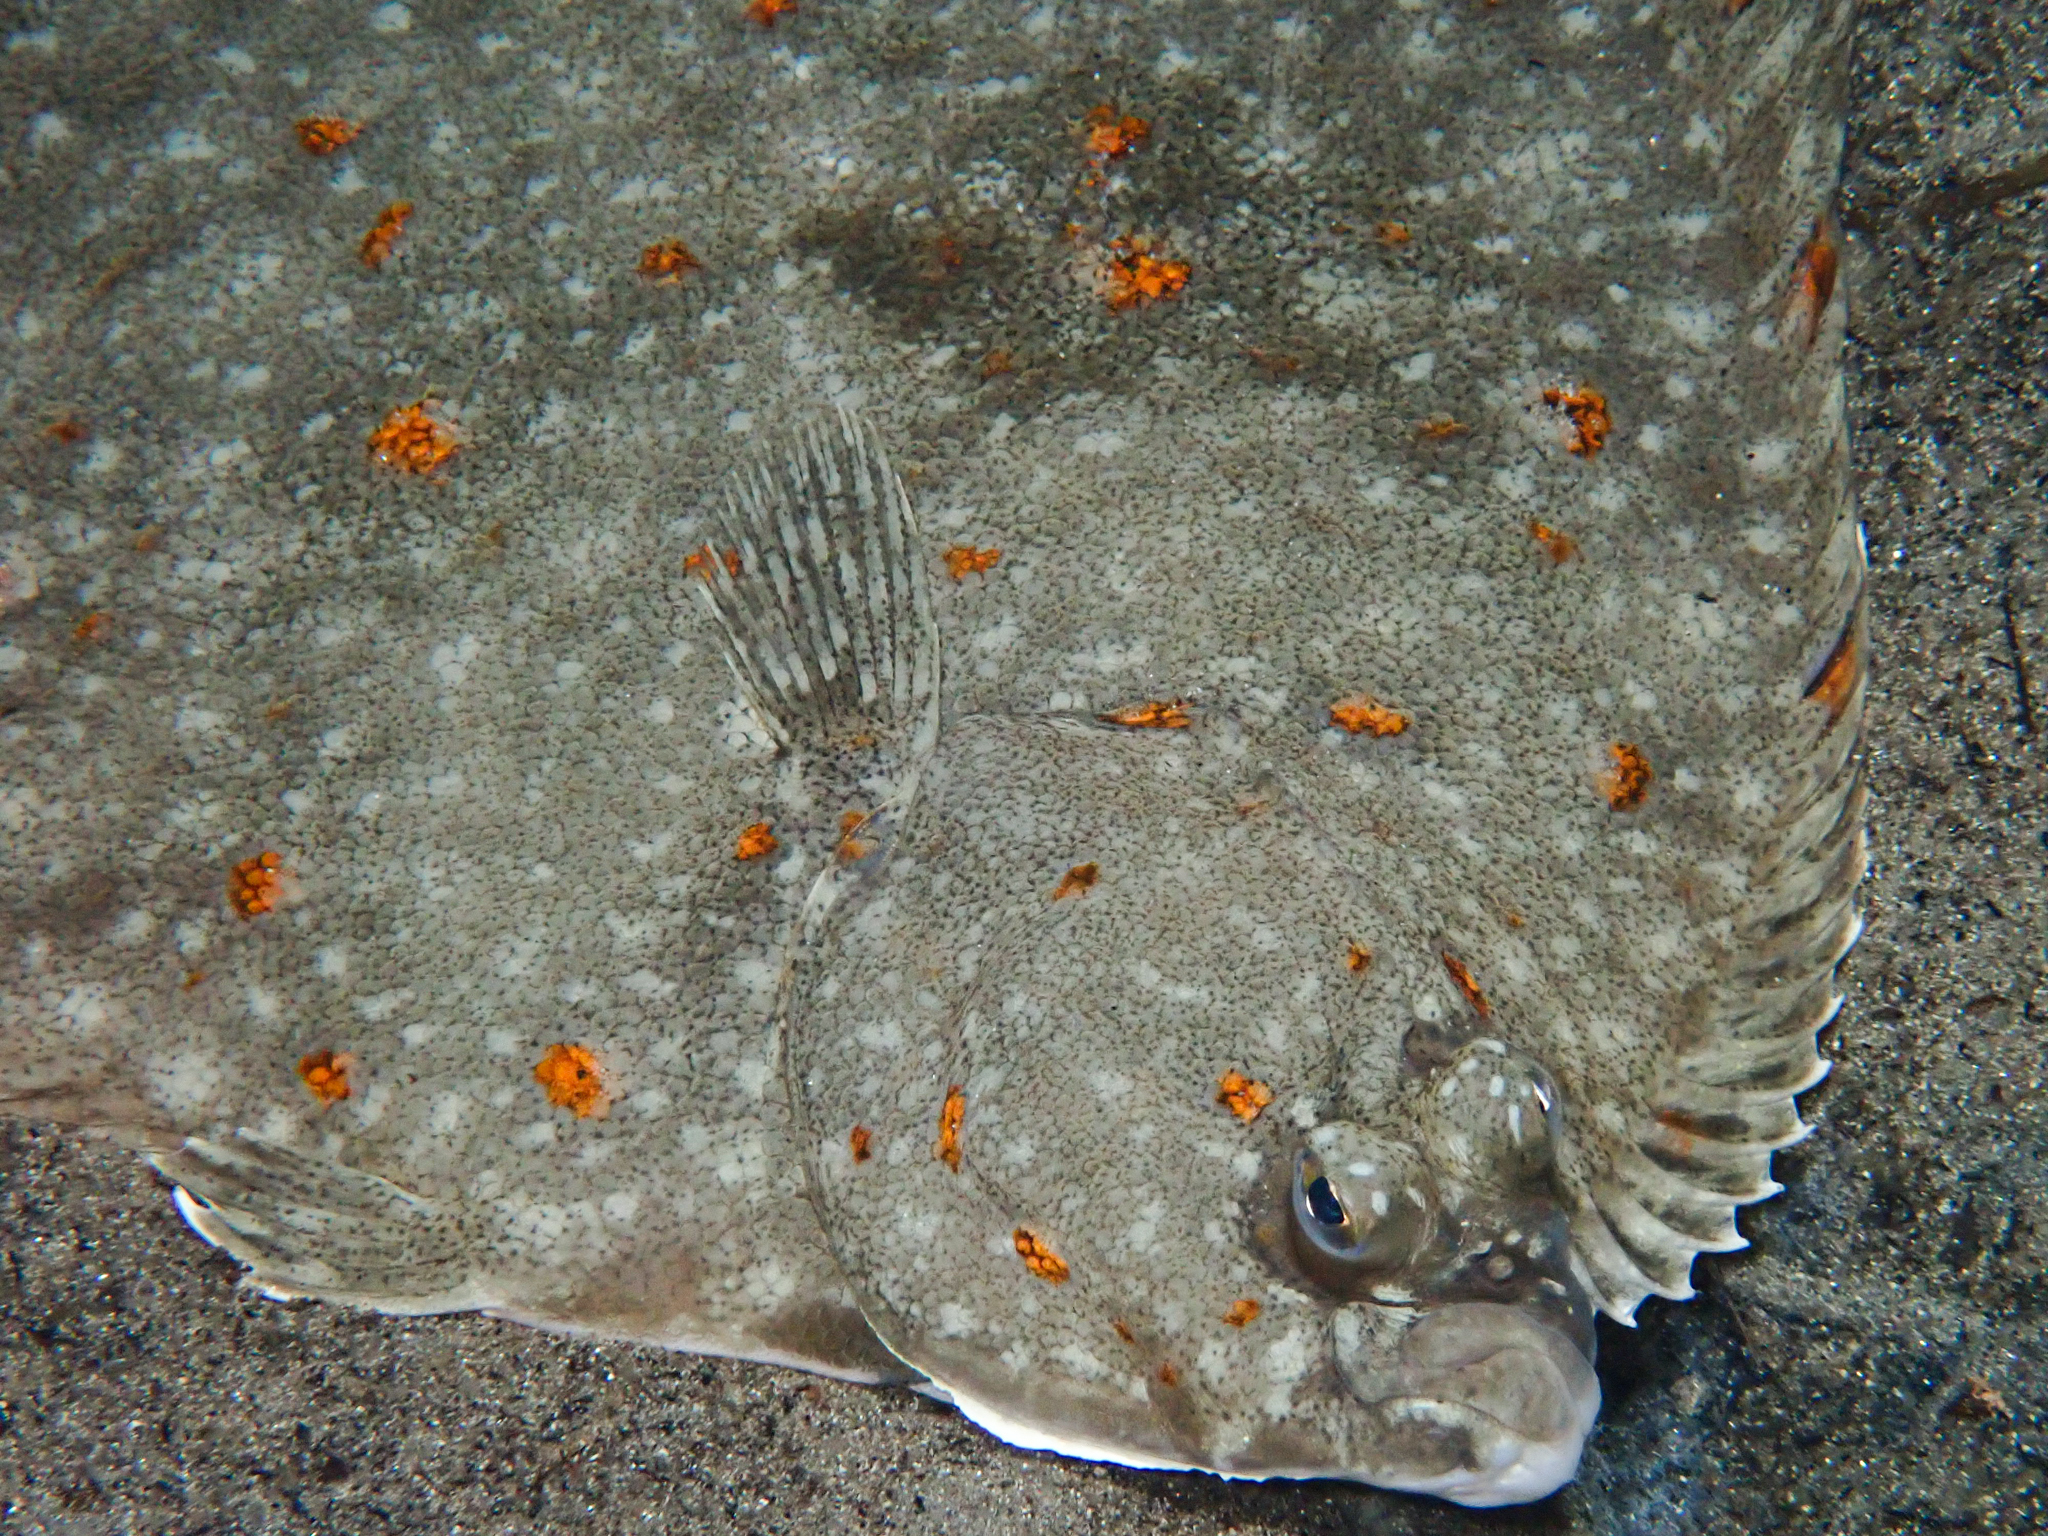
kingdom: Animalia
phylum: Chordata
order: Pleuronectiformes
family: Pleuronectidae
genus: Pleuronectes
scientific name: Pleuronectes platessa
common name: Plaice
